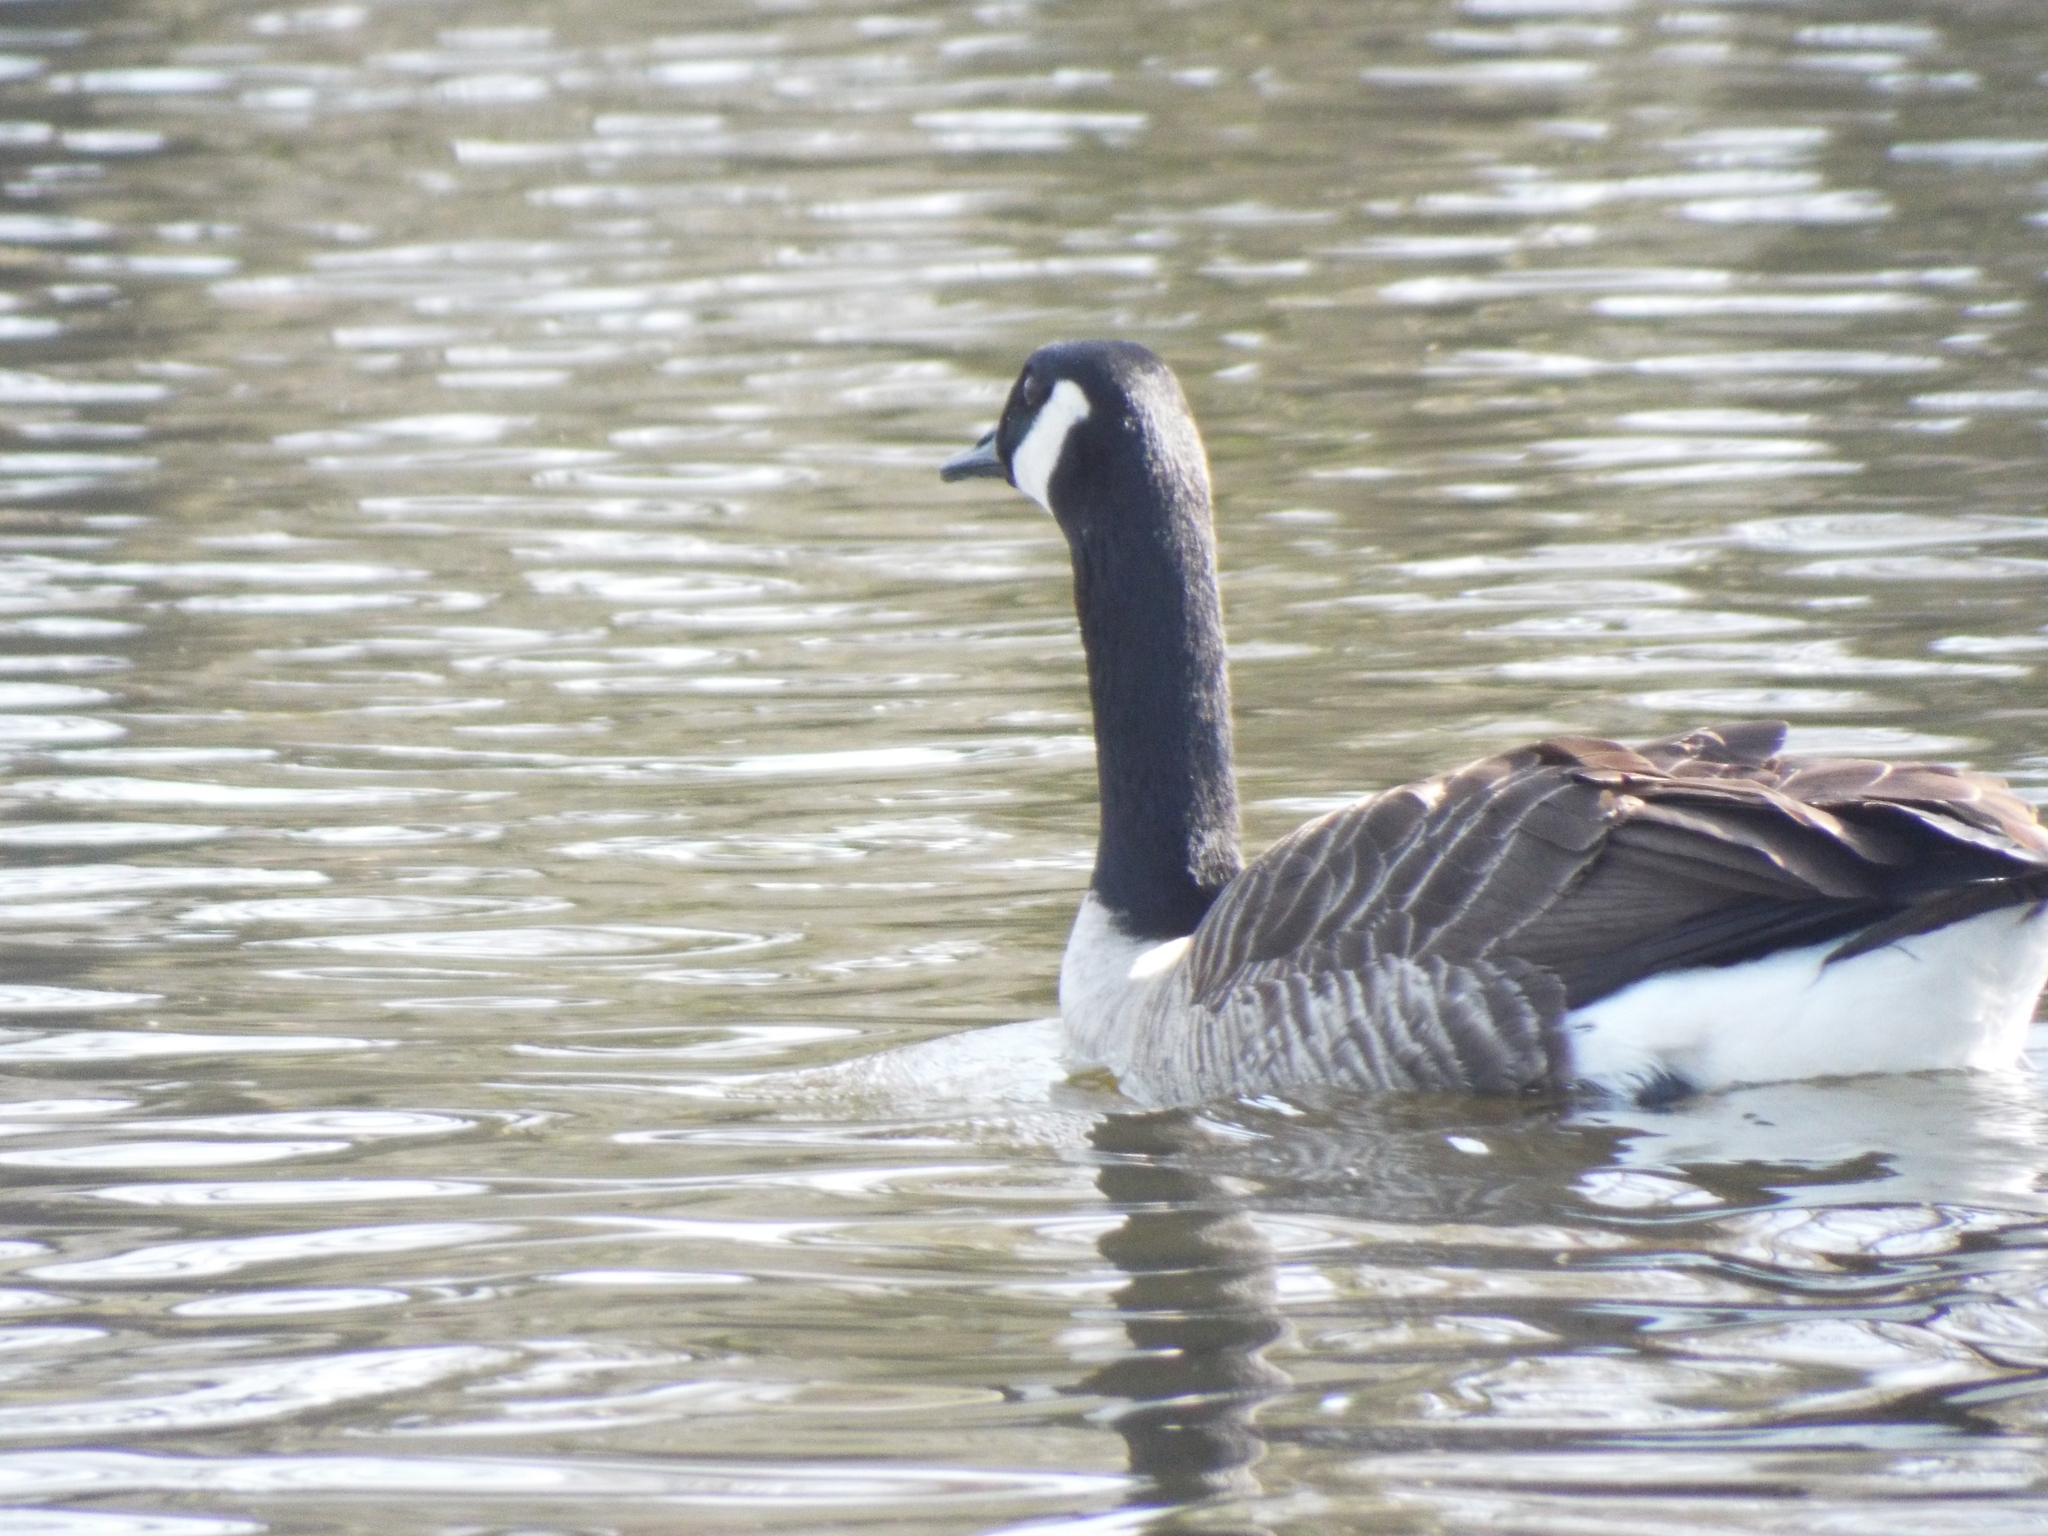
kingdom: Animalia
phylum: Chordata
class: Aves
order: Anseriformes
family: Anatidae
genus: Branta
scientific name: Branta canadensis
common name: Canada goose
